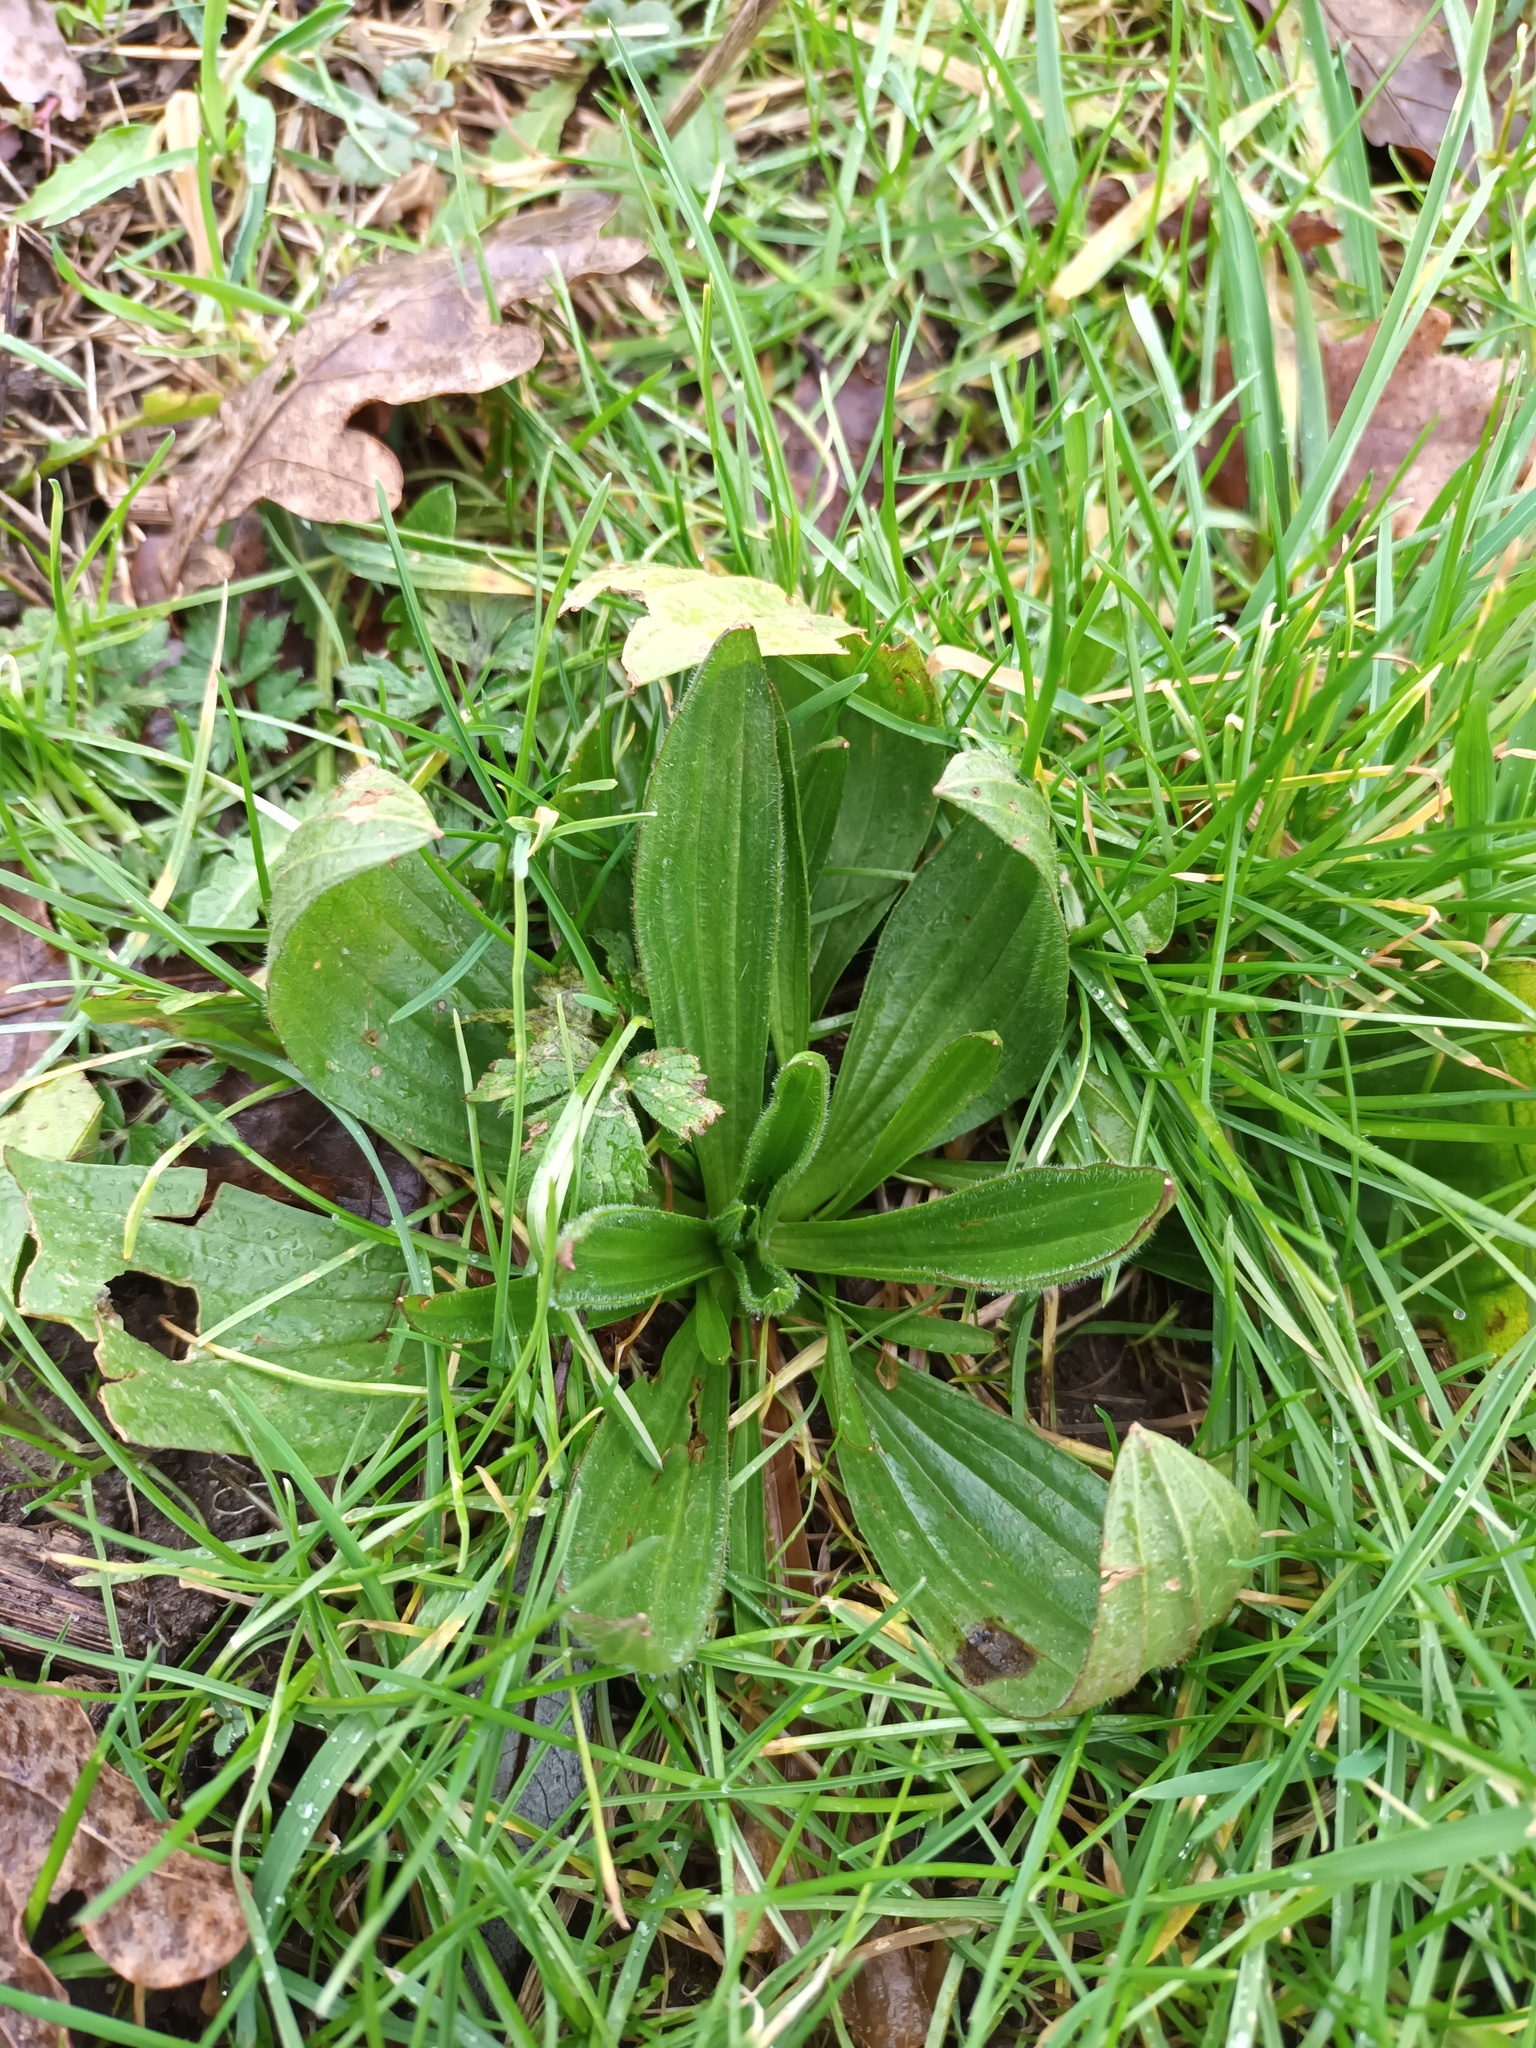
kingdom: Plantae
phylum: Tracheophyta
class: Magnoliopsida
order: Lamiales
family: Plantaginaceae
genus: Plantago
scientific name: Plantago lanceolata
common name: Ribwort plantain
